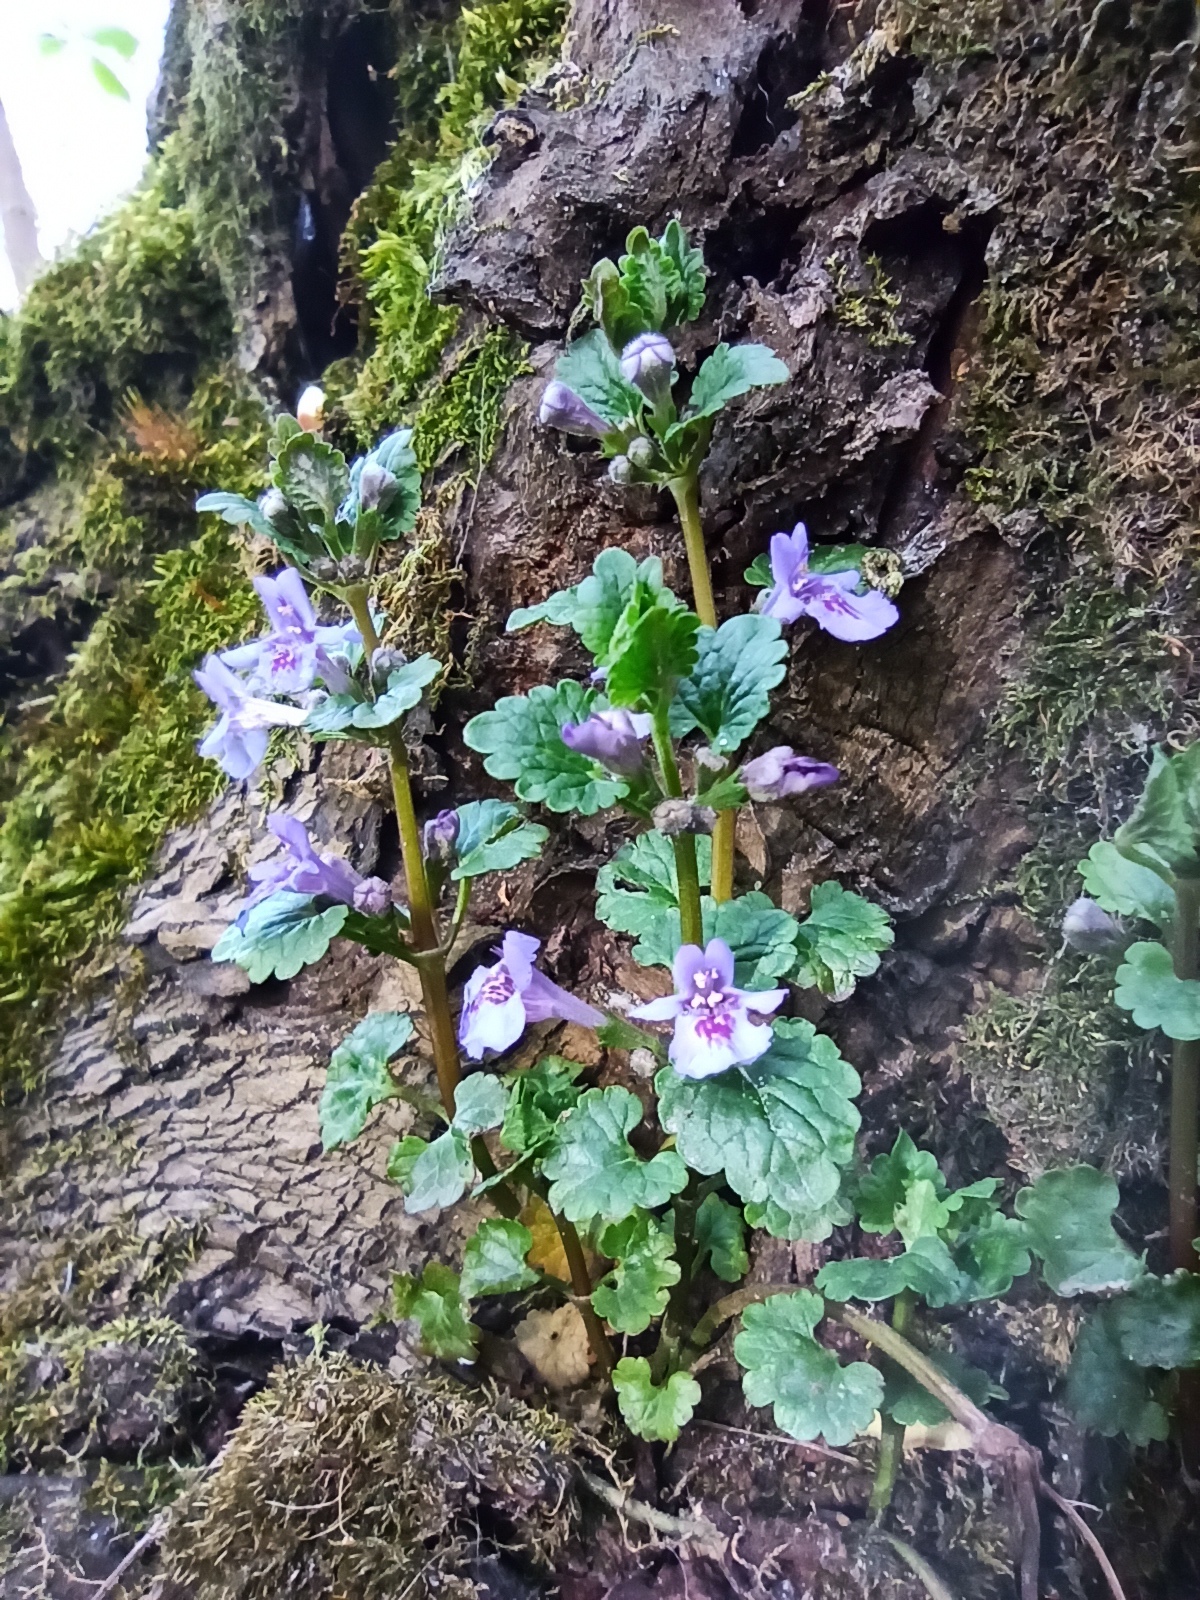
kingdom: Plantae
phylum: Tracheophyta
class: Magnoliopsida
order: Lamiales
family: Lamiaceae
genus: Glechoma
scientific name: Glechoma hederacea
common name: Ground ivy
